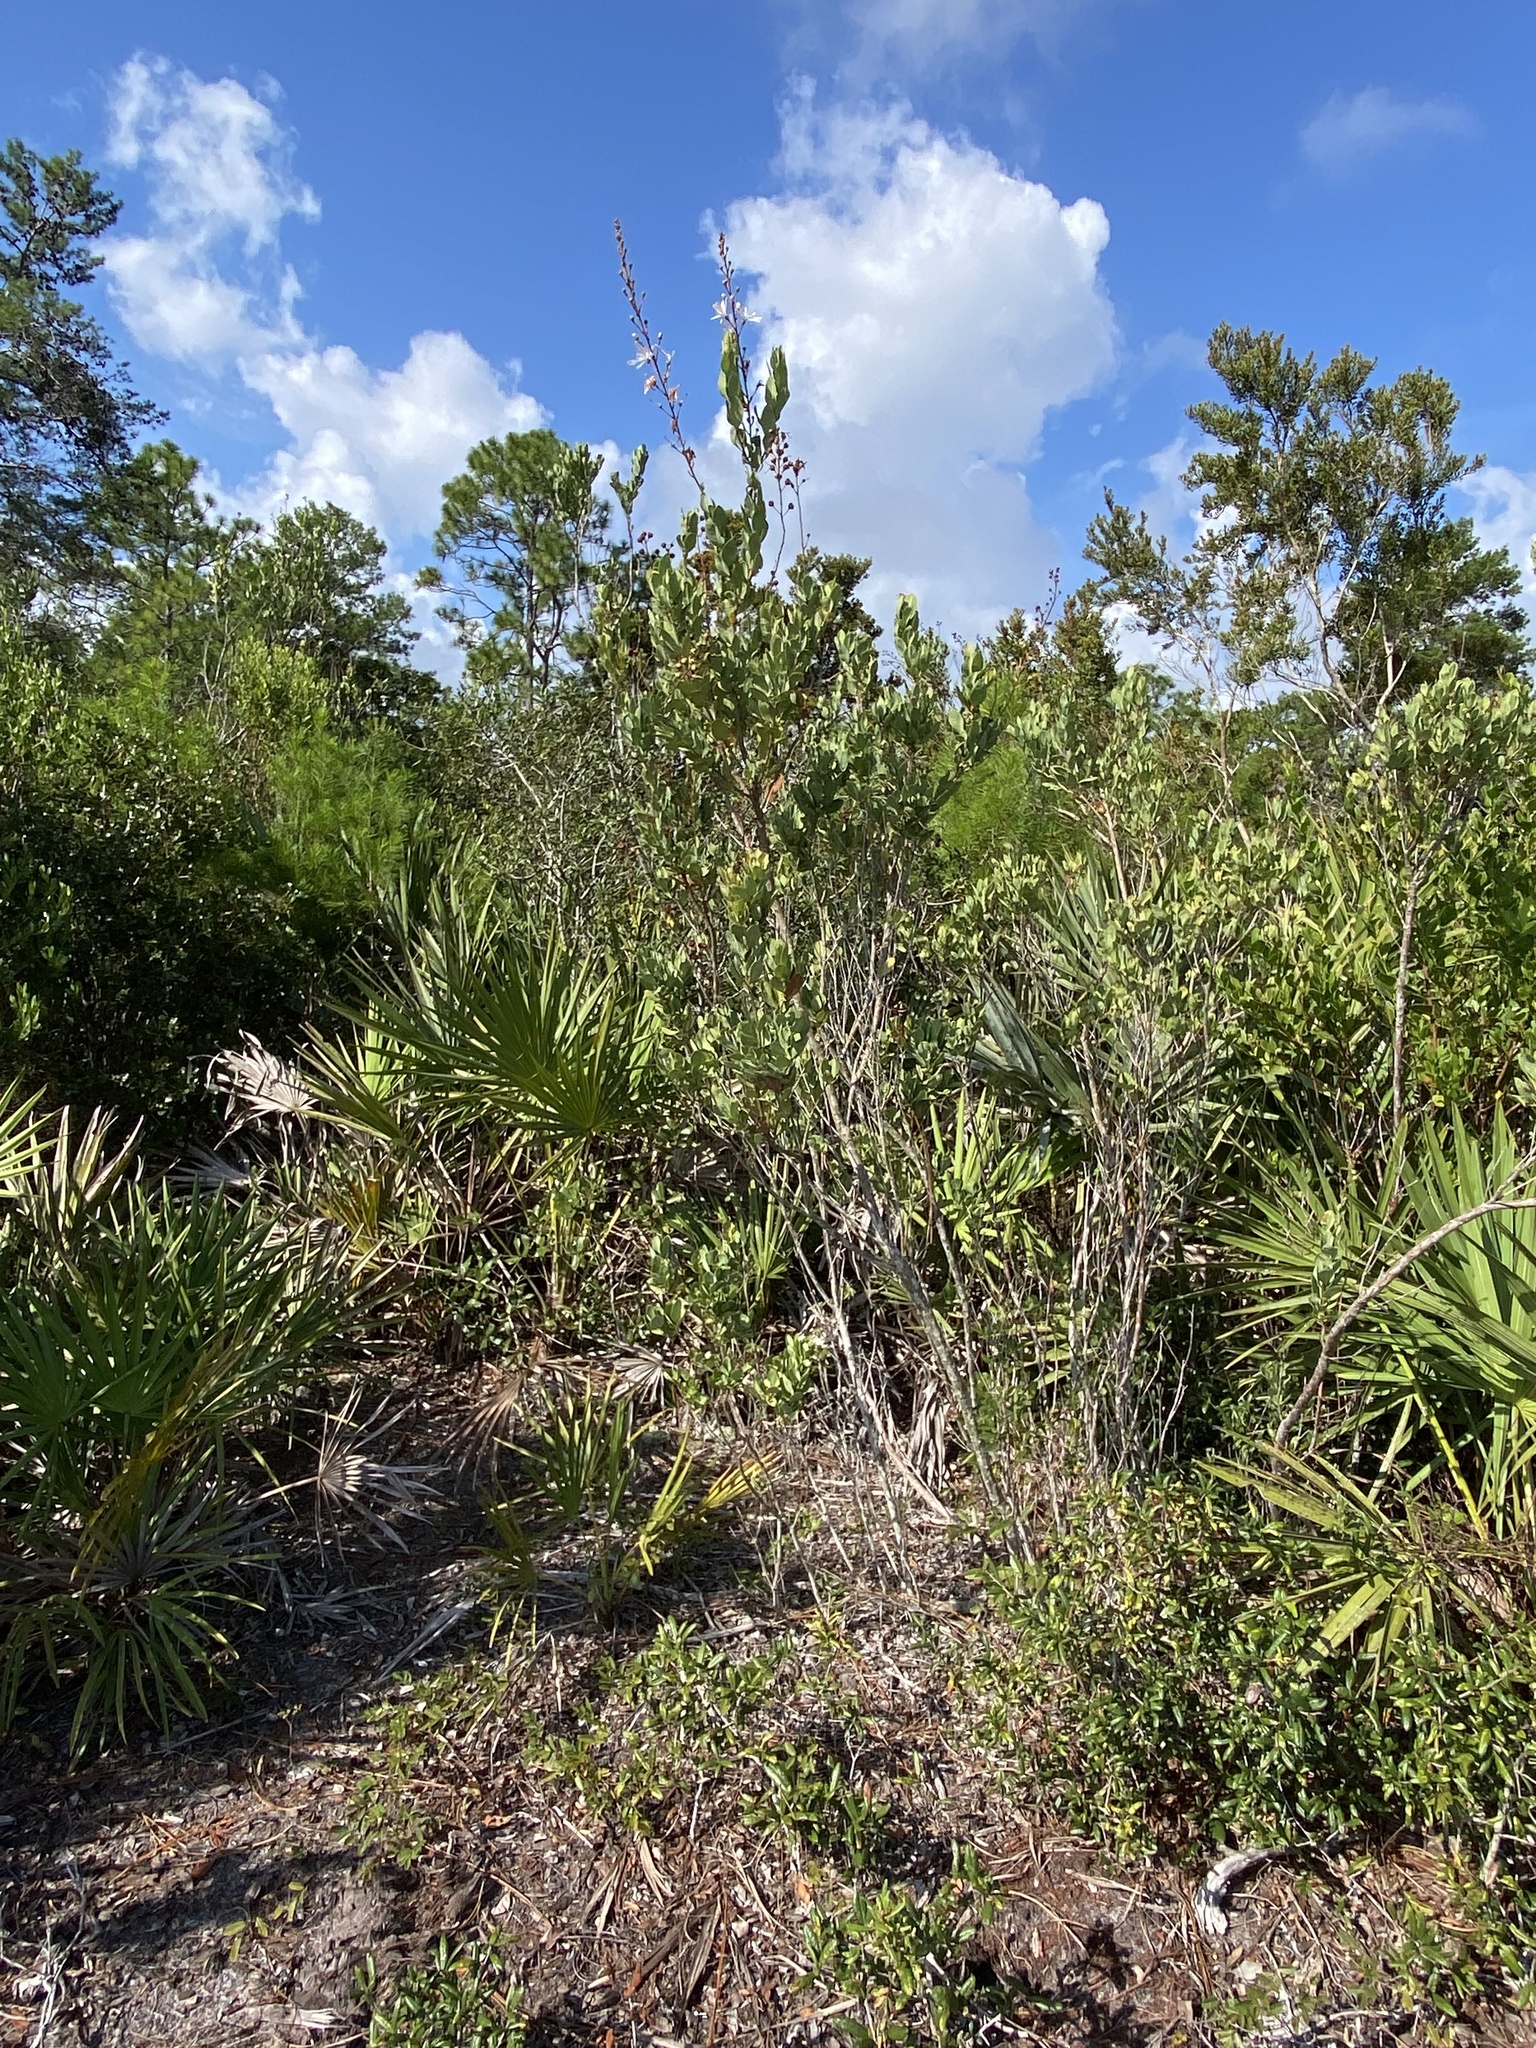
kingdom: Plantae
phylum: Tracheophyta
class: Magnoliopsida
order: Ericales
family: Ericaceae
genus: Bejaria
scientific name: Bejaria racemosa
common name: Tarflower
